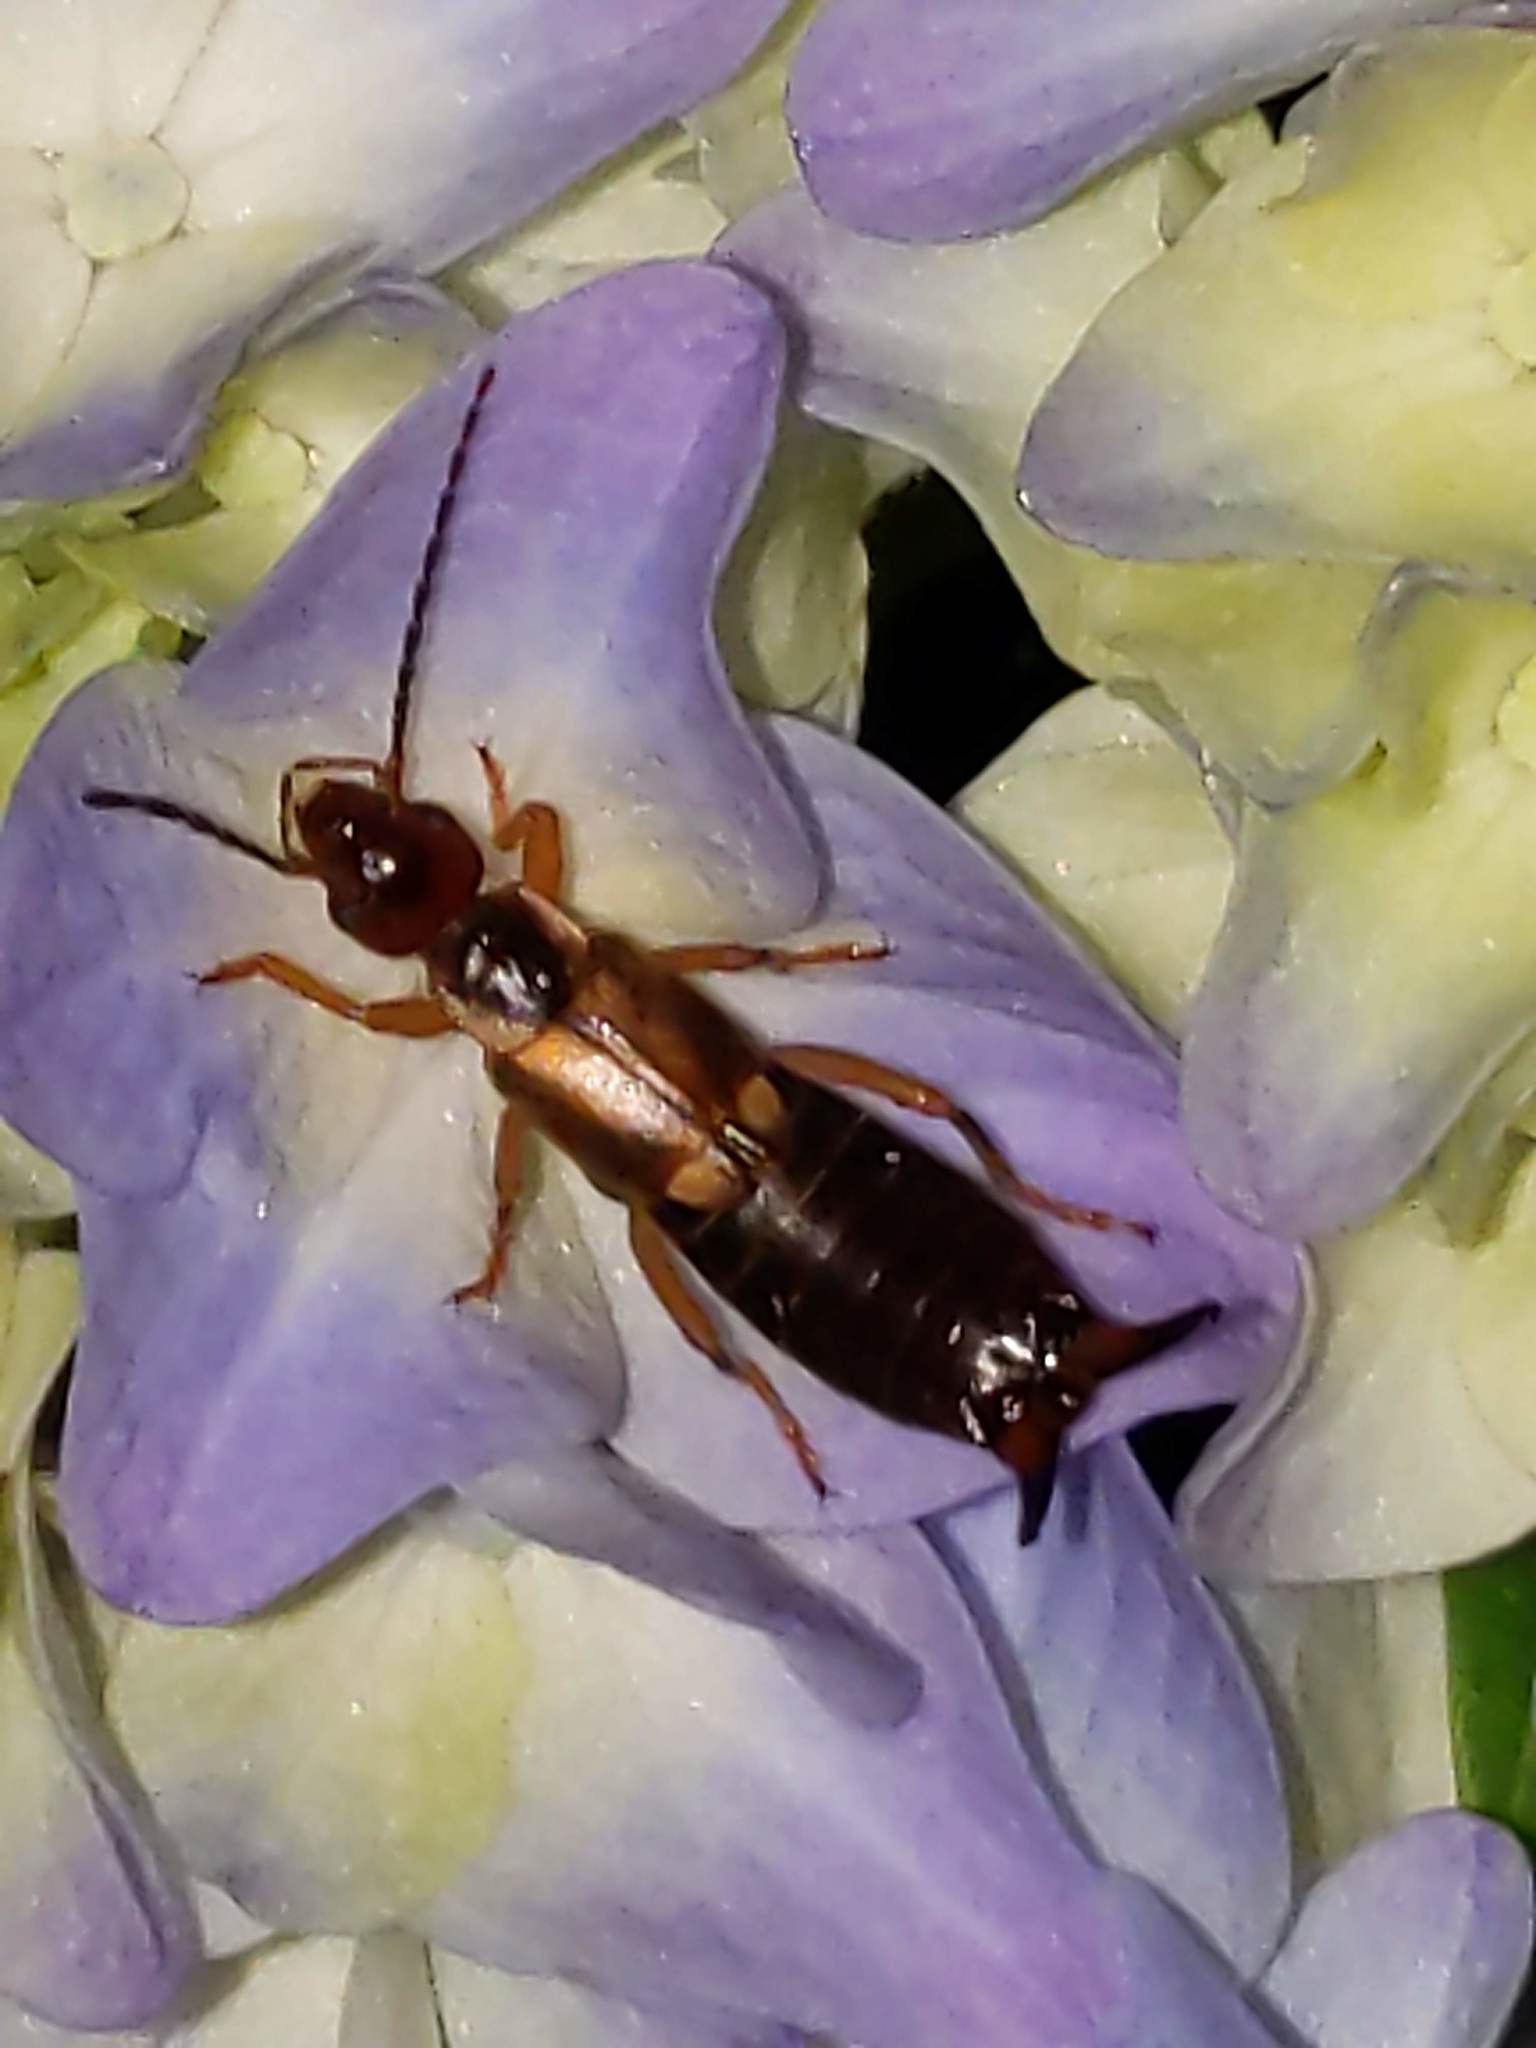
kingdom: Animalia
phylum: Arthropoda
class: Insecta
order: Dermaptera
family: Forficulidae
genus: Forficula
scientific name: Forficula
